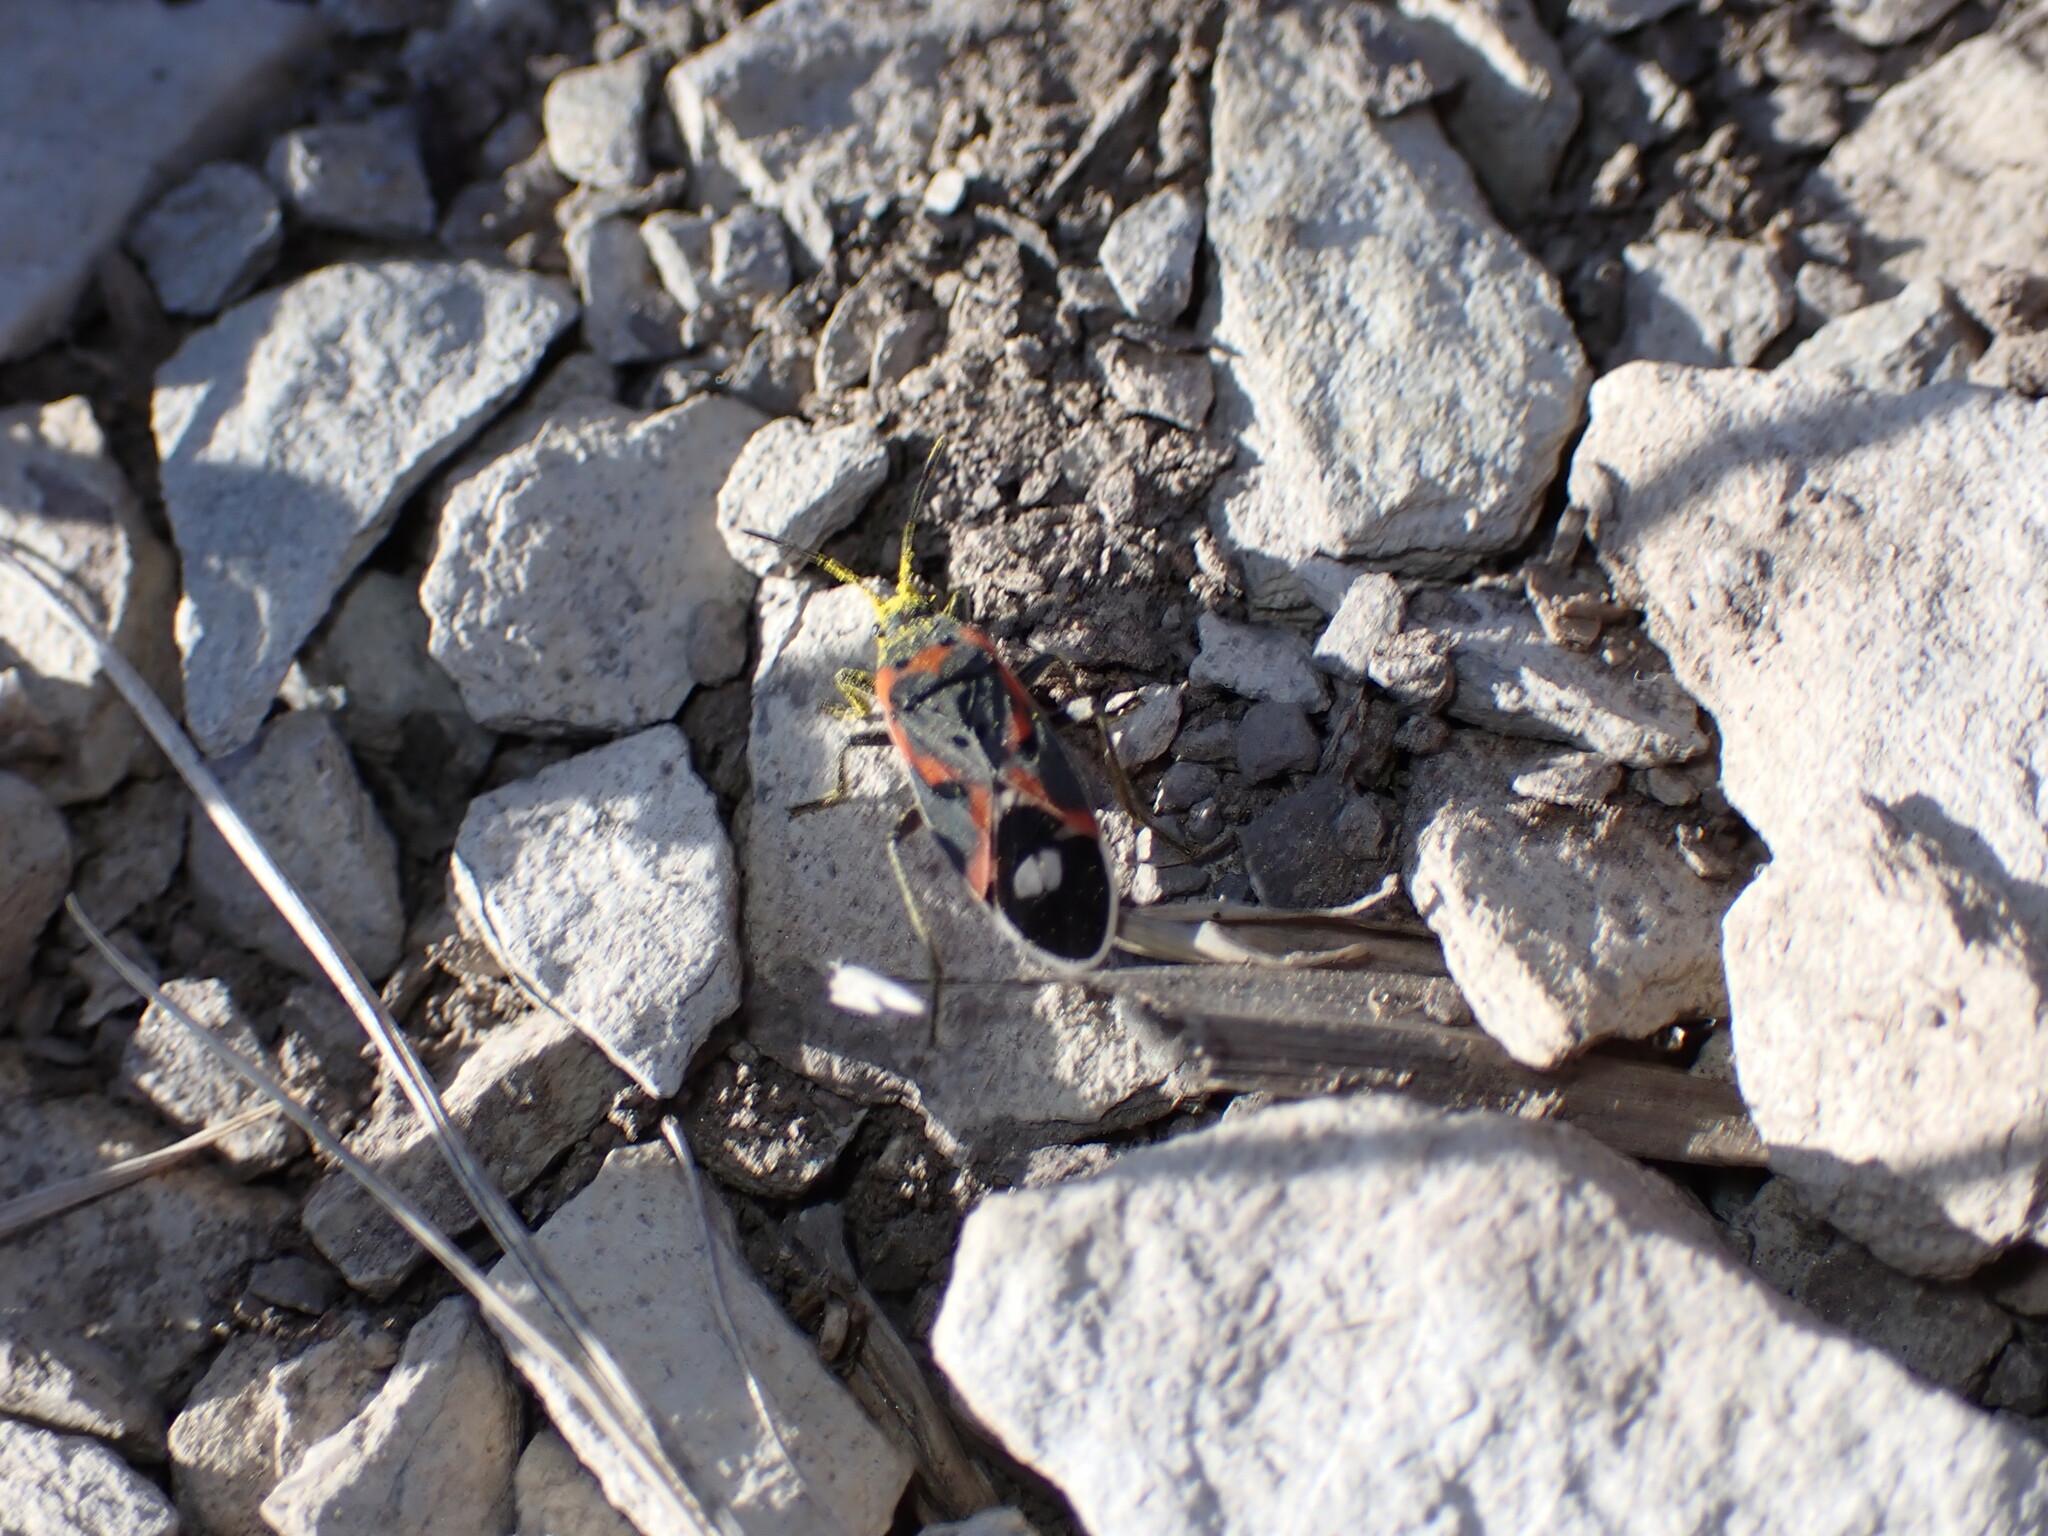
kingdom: Animalia
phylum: Arthropoda
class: Insecta
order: Hemiptera
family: Lygaeidae
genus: Lygaeus
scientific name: Lygaeus kalmii
